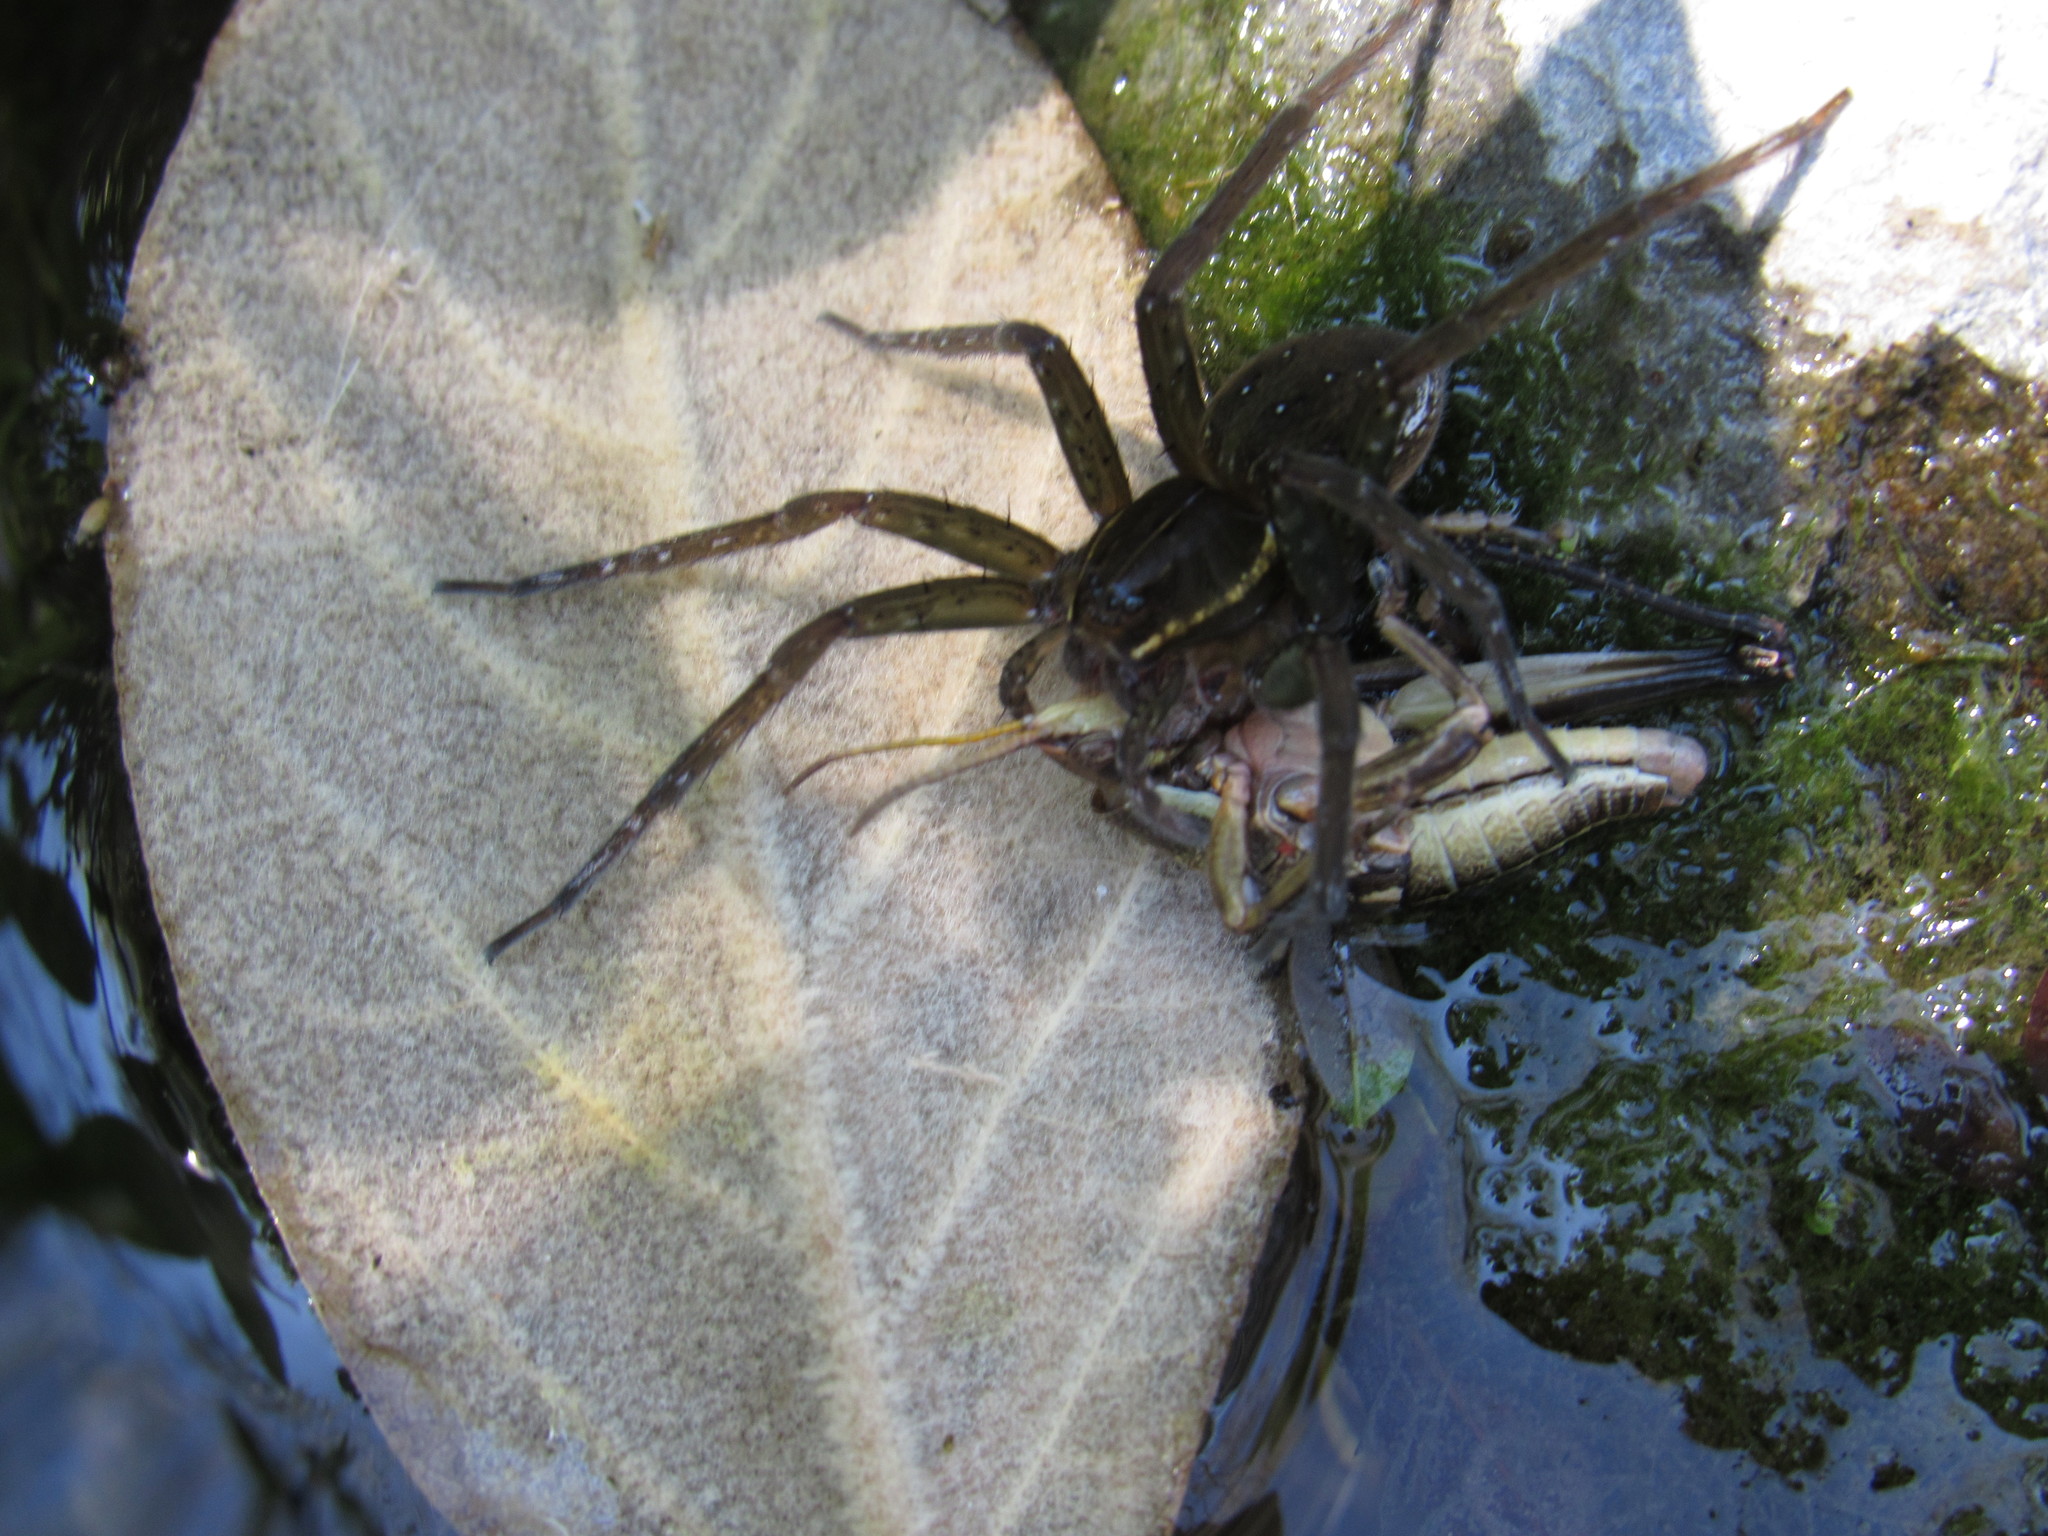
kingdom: Animalia
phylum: Arthropoda
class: Arachnida
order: Araneae
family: Pisauridae
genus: Dolomedes
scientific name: Dolomedes triton
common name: Six-spotted fishing spider
